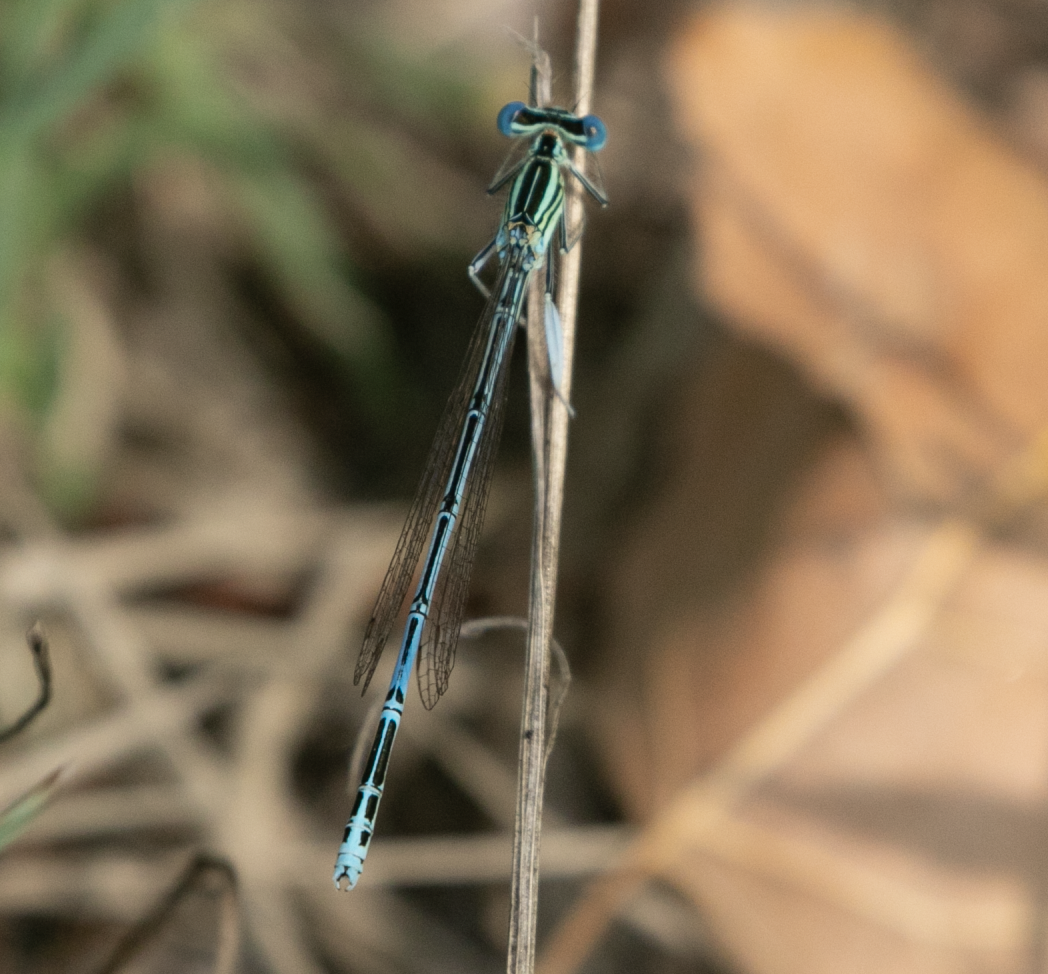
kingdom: Animalia
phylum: Arthropoda
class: Insecta
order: Odonata
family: Platycnemididae
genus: Platycnemis
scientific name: Platycnemis pennipes
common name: White-legged damselfly
